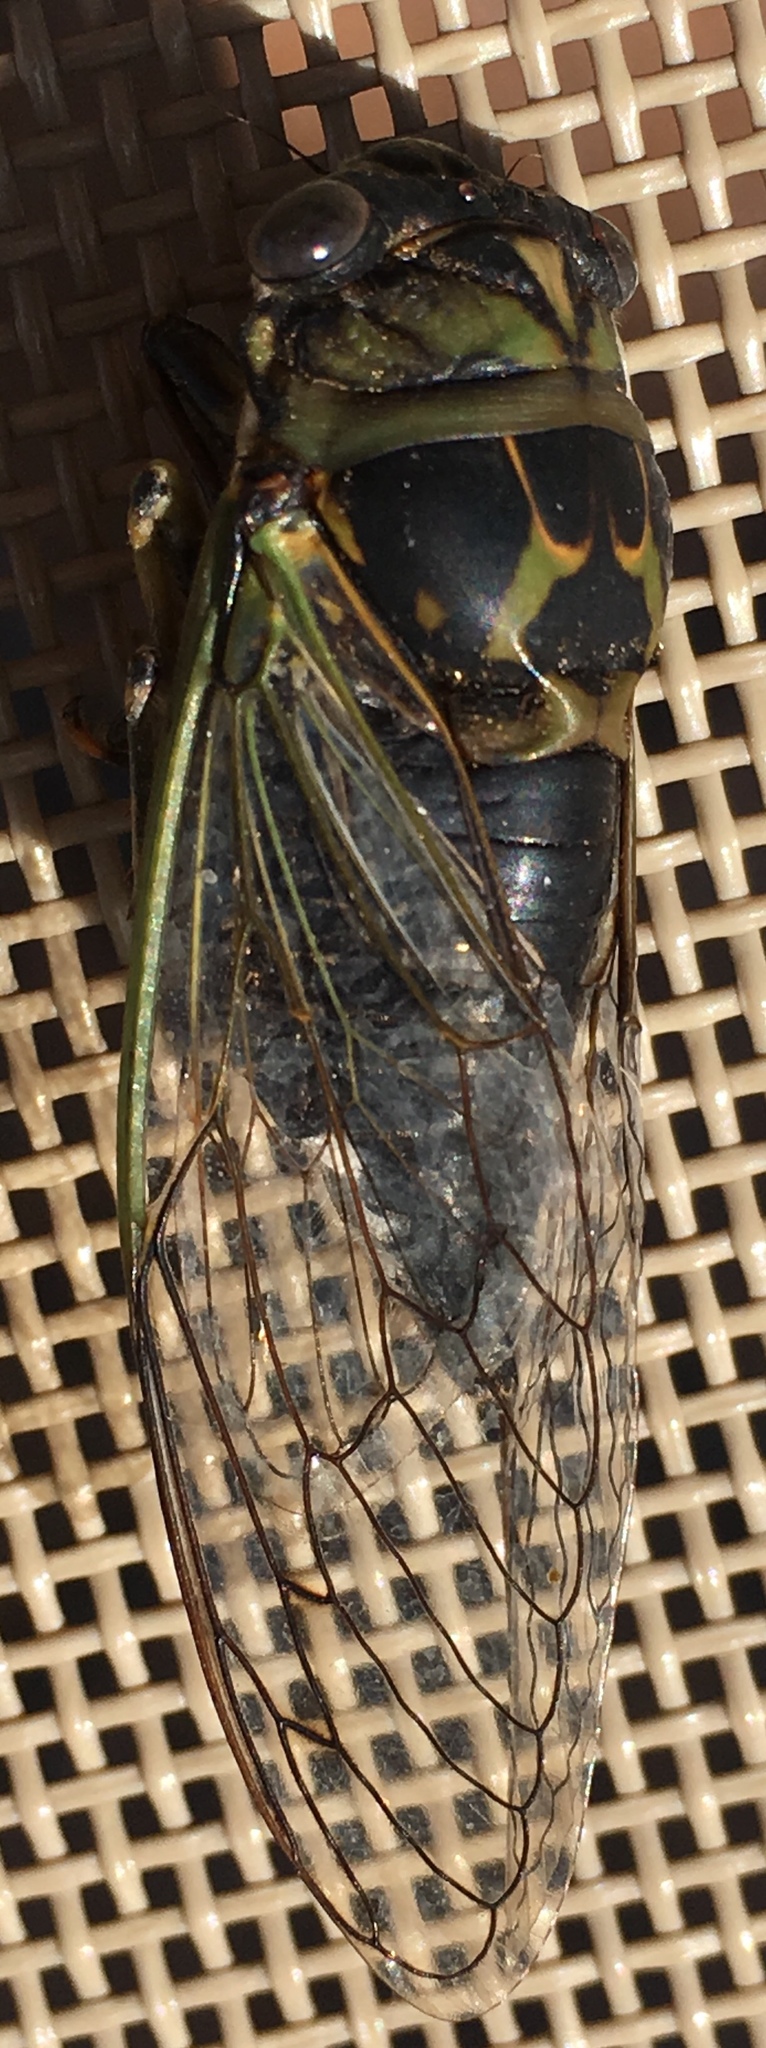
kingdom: Animalia
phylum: Arthropoda
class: Insecta
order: Hemiptera
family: Cicadidae
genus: Neotibicen
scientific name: Neotibicen canicularis
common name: God-day cicada
